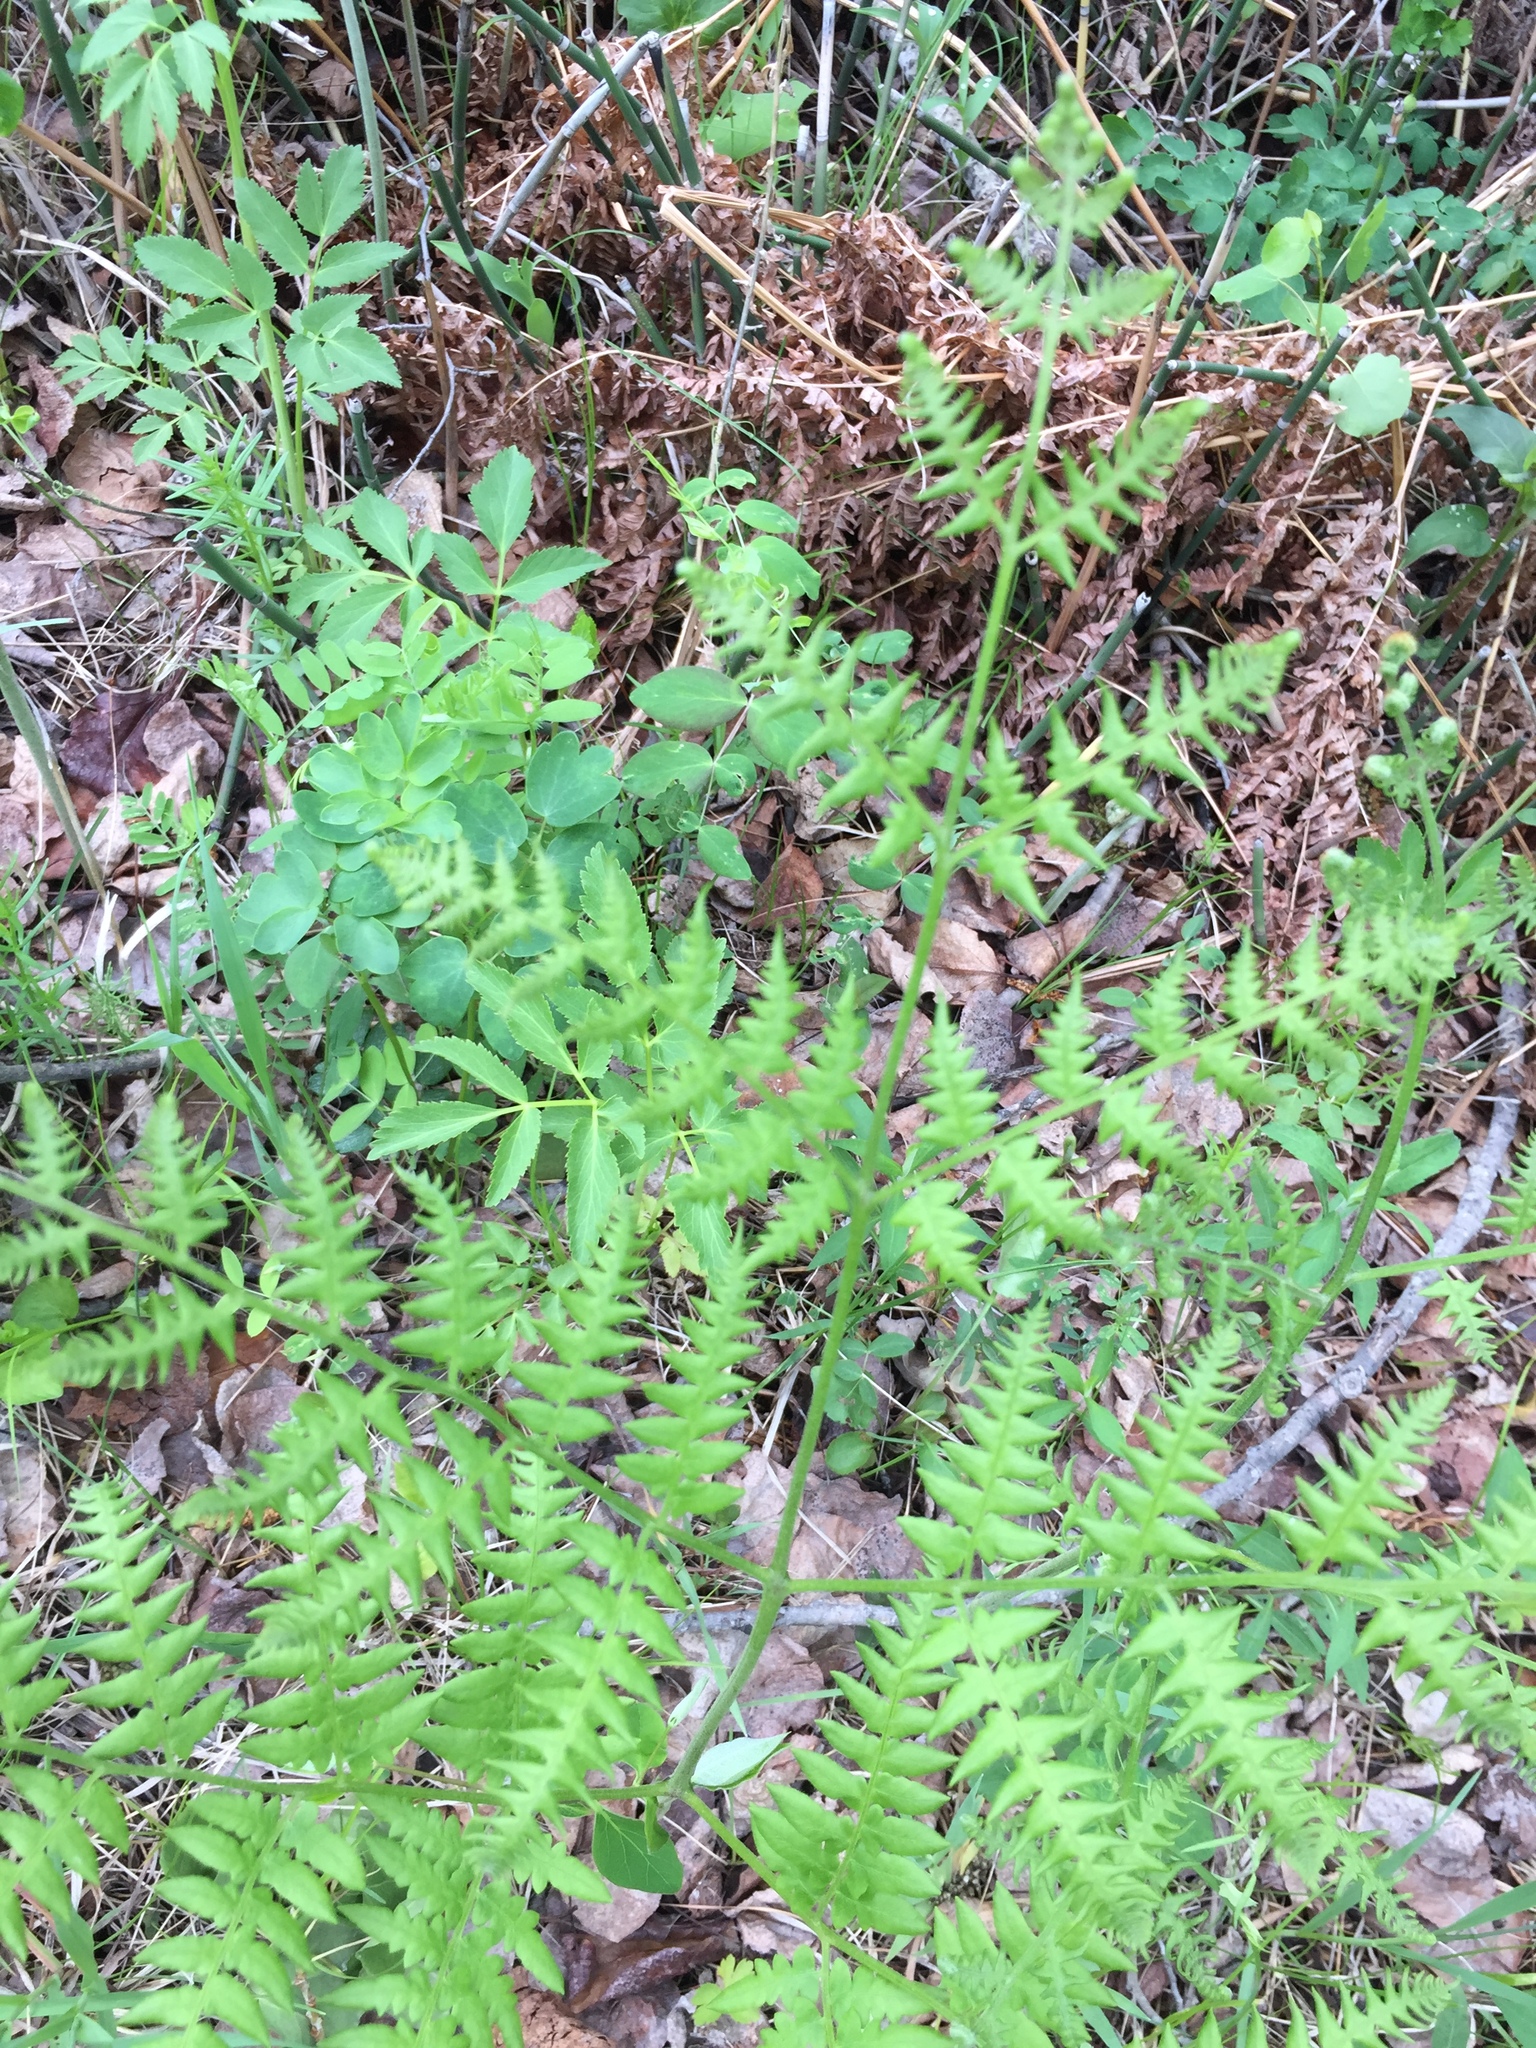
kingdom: Plantae
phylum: Tracheophyta
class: Polypodiopsida
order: Polypodiales
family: Dennstaedtiaceae
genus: Pteridium
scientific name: Pteridium aquilinum
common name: Bracken
